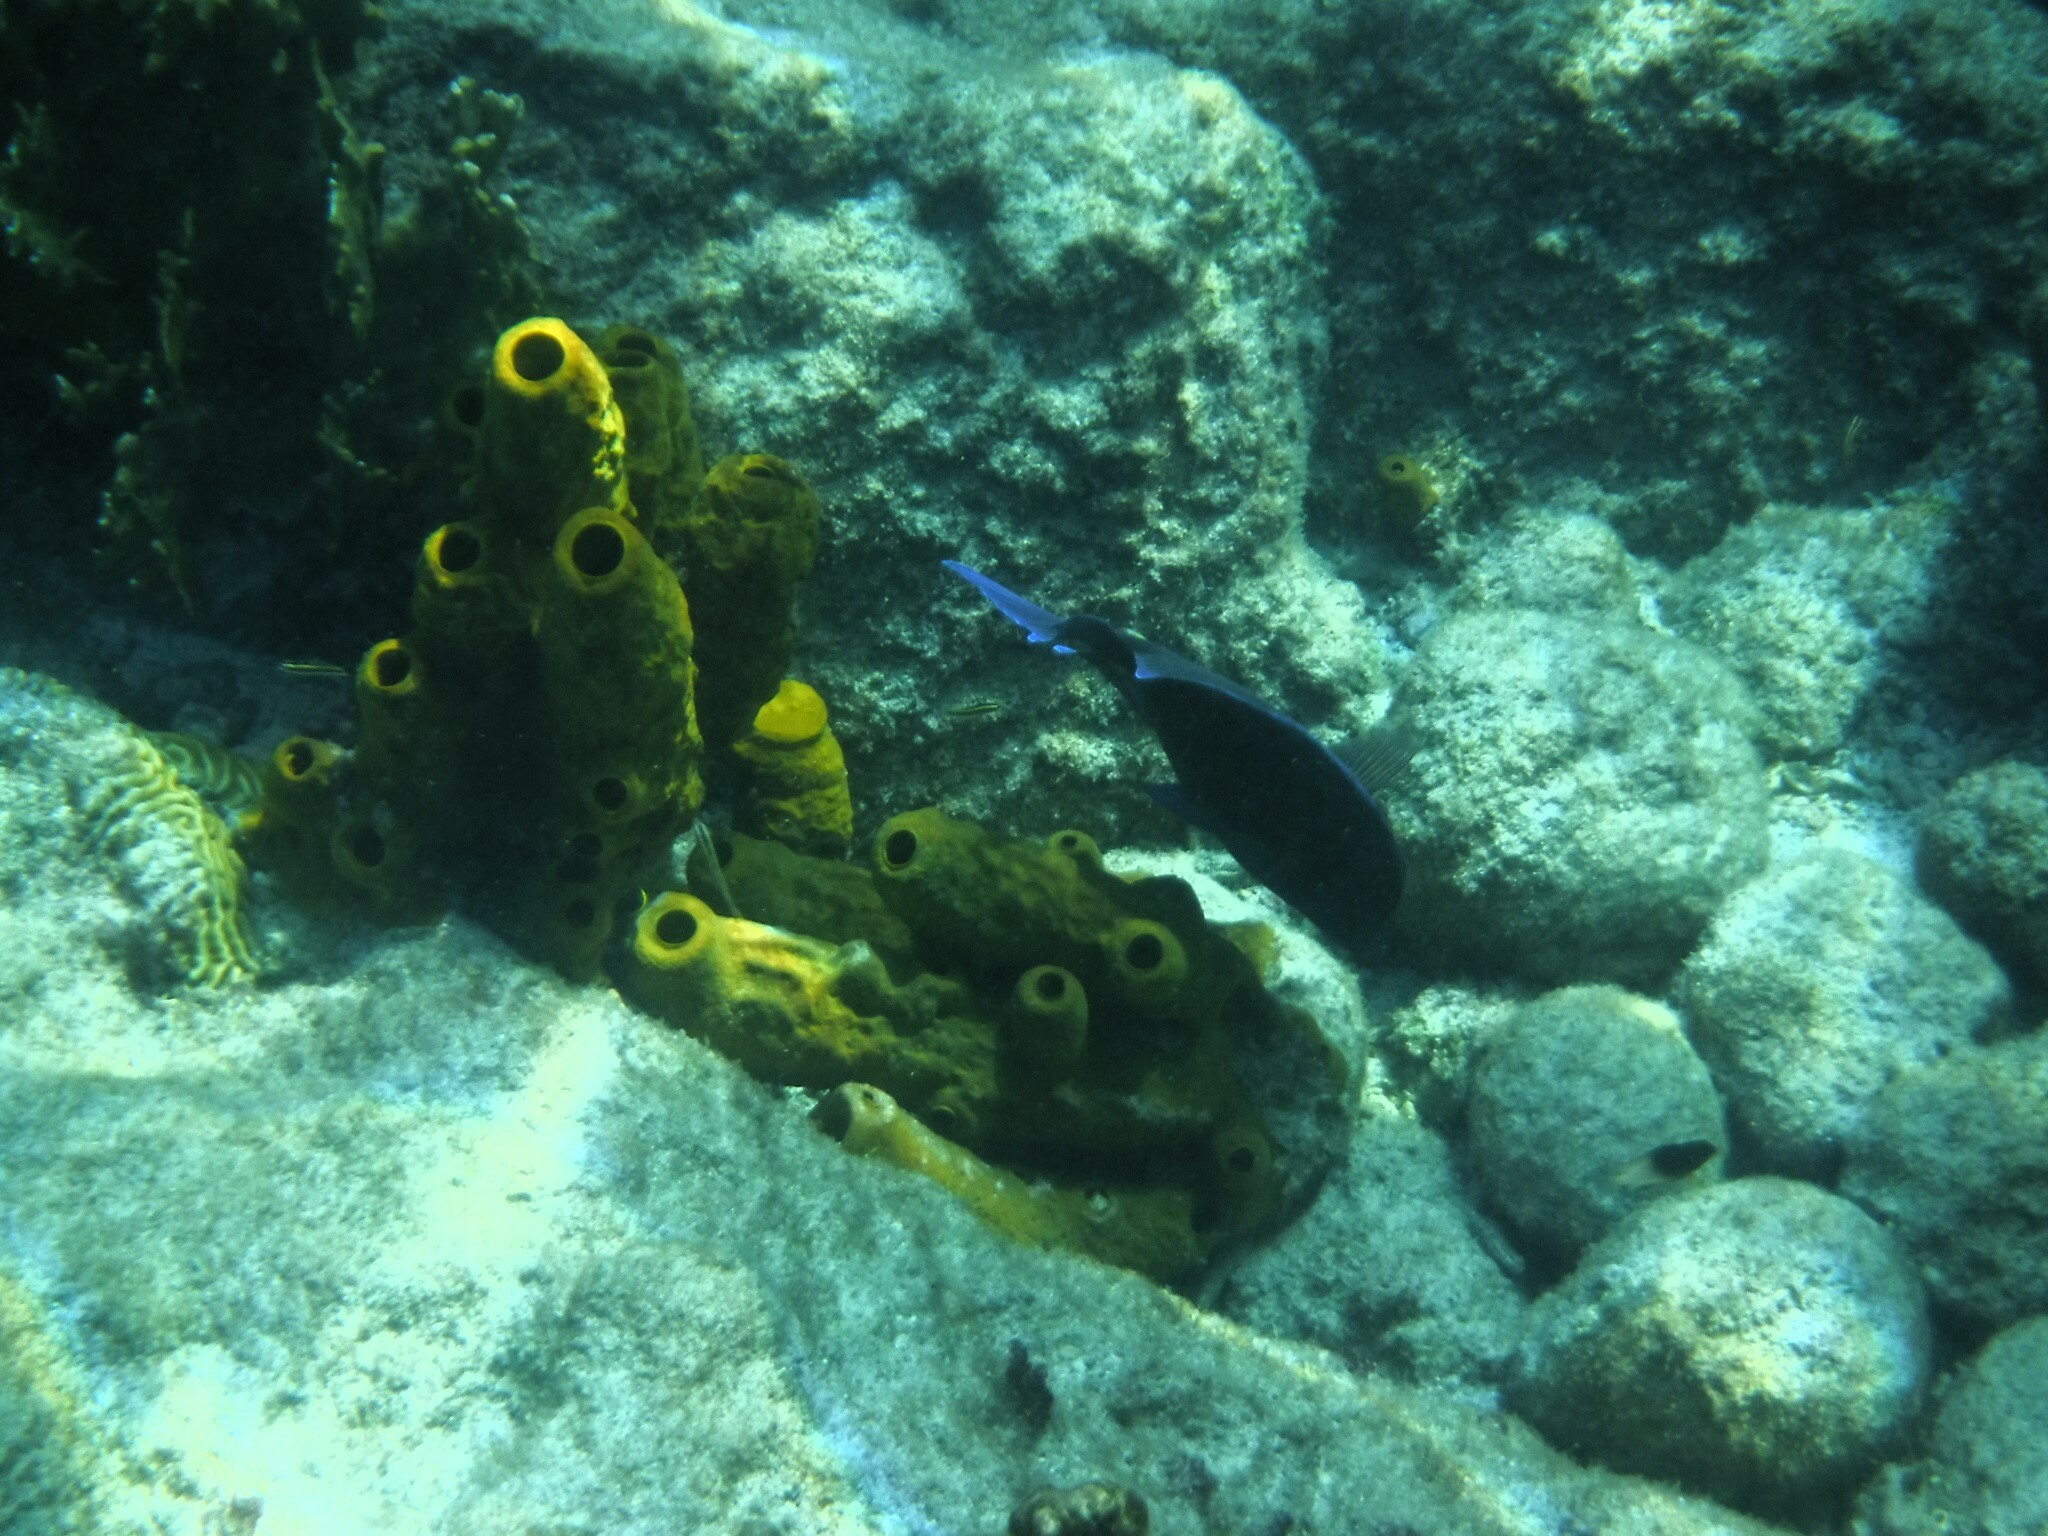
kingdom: Animalia
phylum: Chordata
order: Perciformes
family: Acanthuridae
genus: Acanthurus
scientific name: Acanthurus coeruleus
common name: Blue tang
